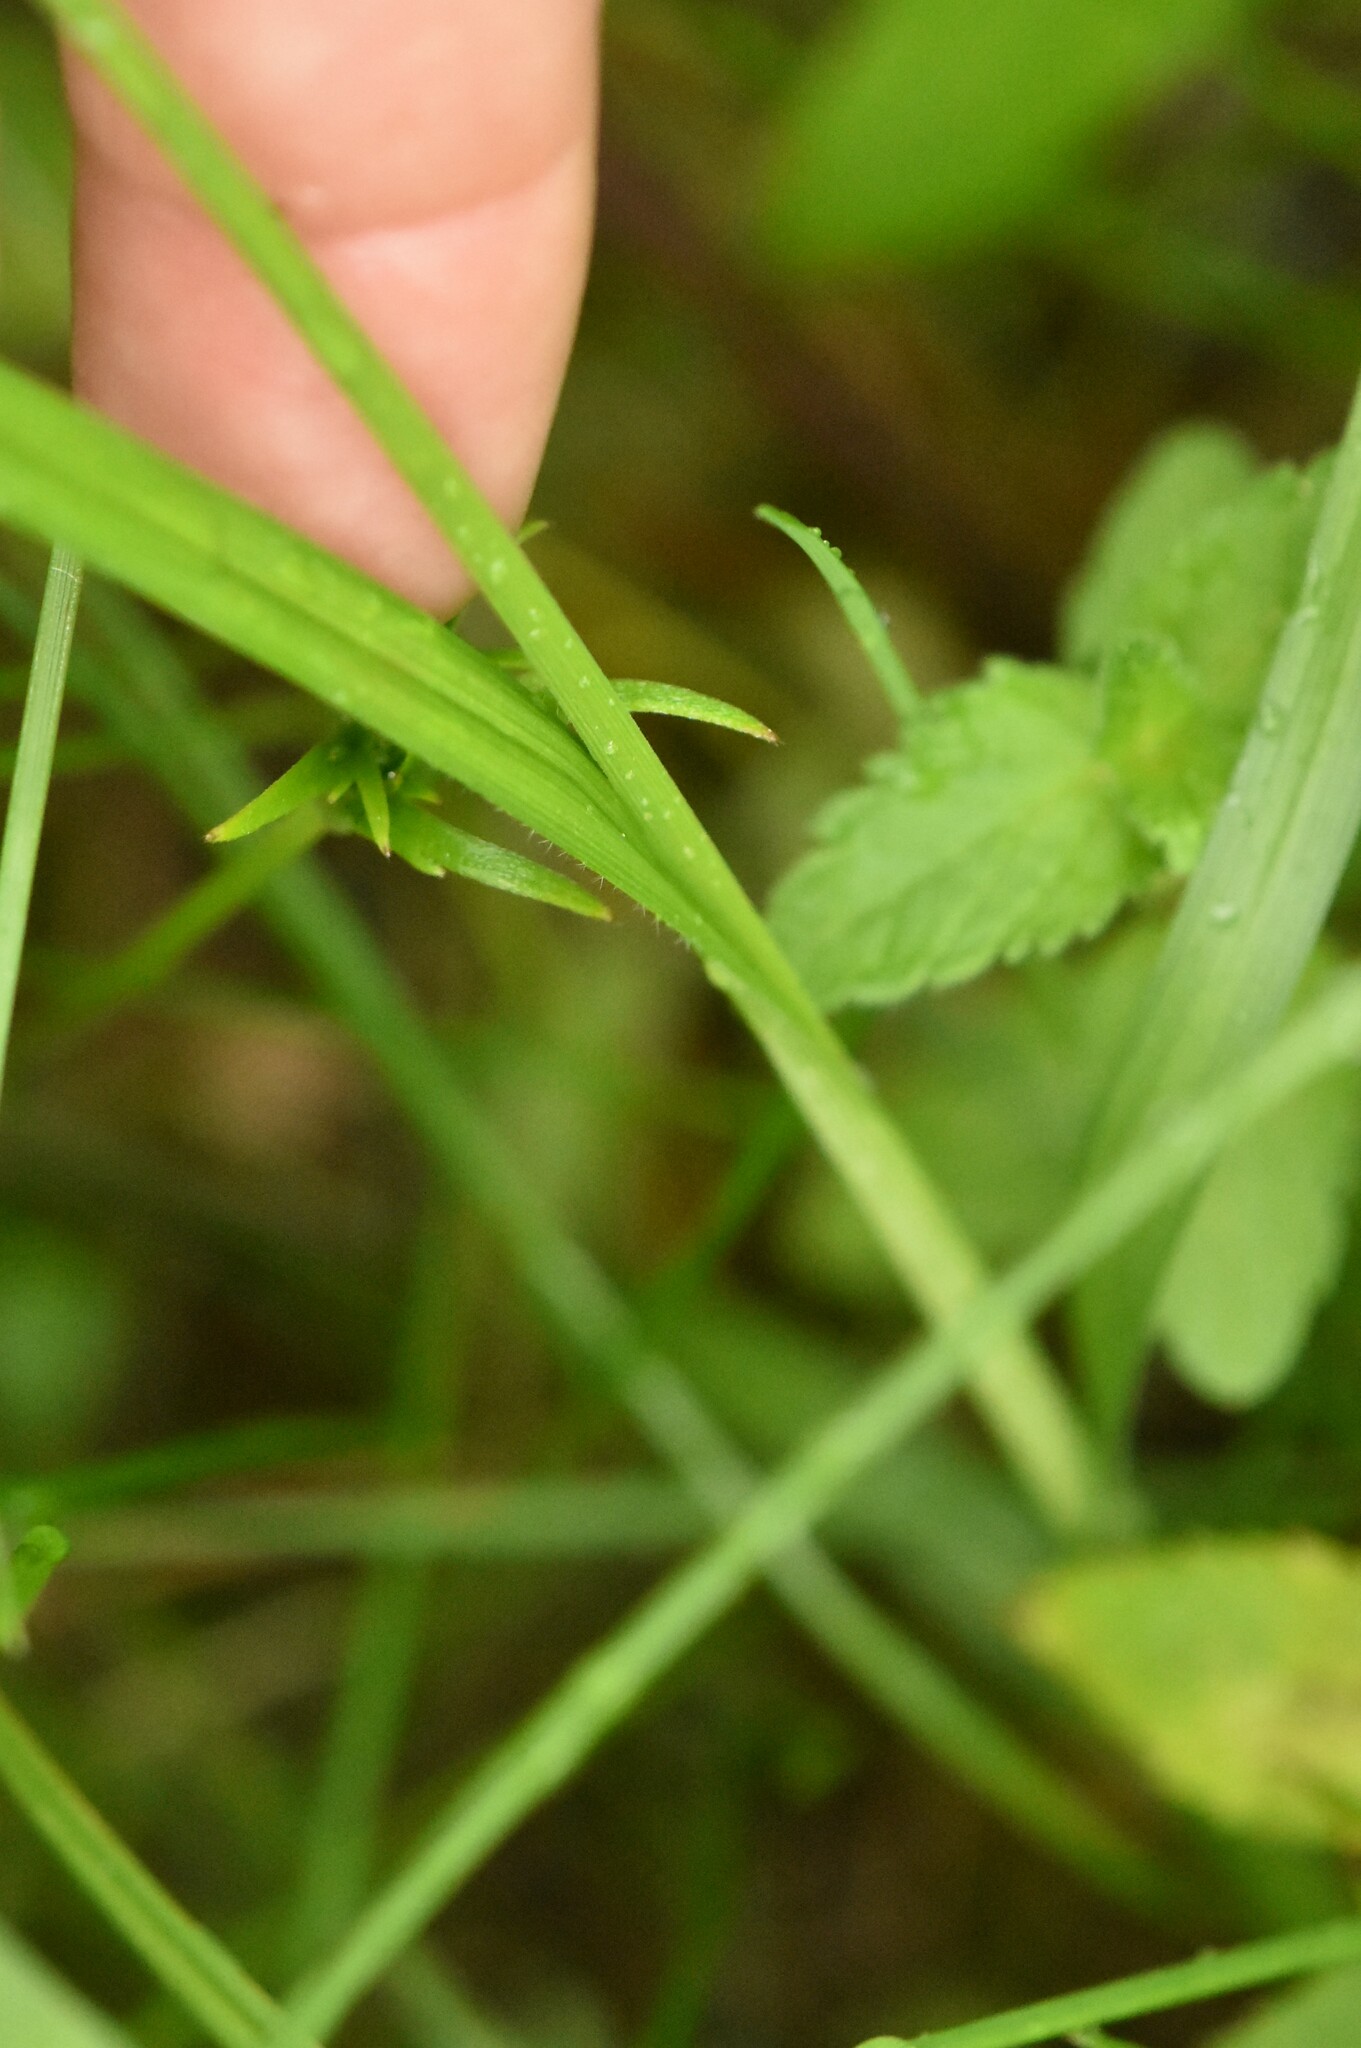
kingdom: Plantae
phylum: Tracheophyta
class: Liliopsida
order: Poales
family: Cyperaceae
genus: Carex
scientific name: Carex pallescens
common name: Pale sedge
